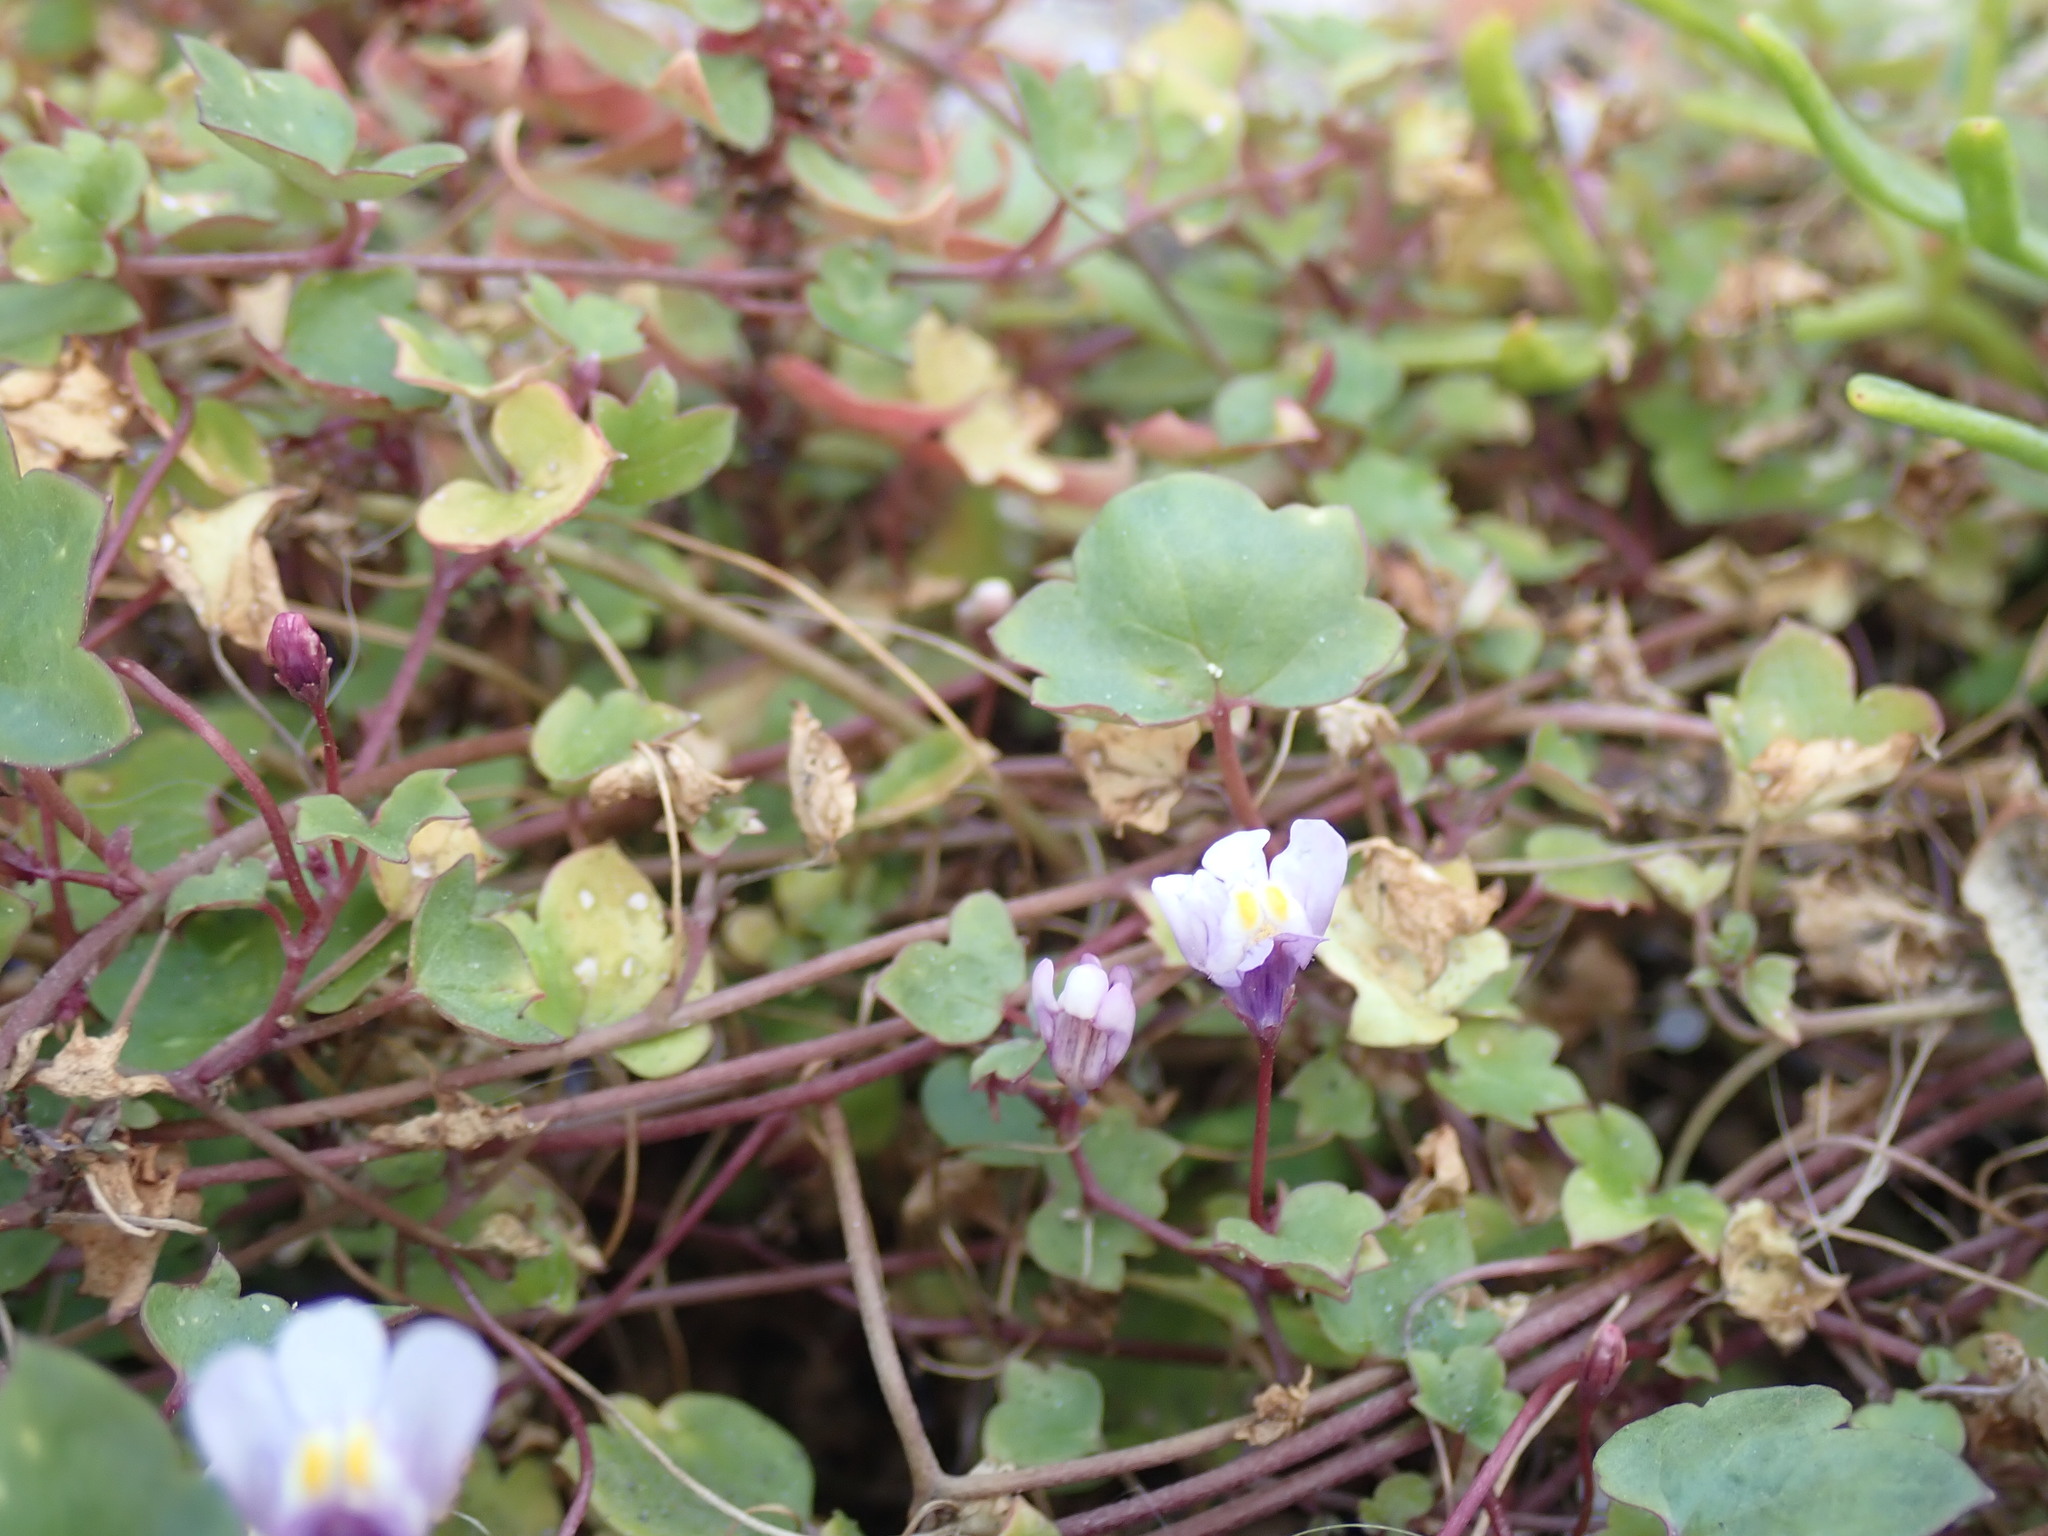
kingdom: Plantae
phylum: Tracheophyta
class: Magnoliopsida
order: Lamiales
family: Plantaginaceae
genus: Cymbalaria
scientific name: Cymbalaria muralis
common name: Ivy-leaved toadflax
